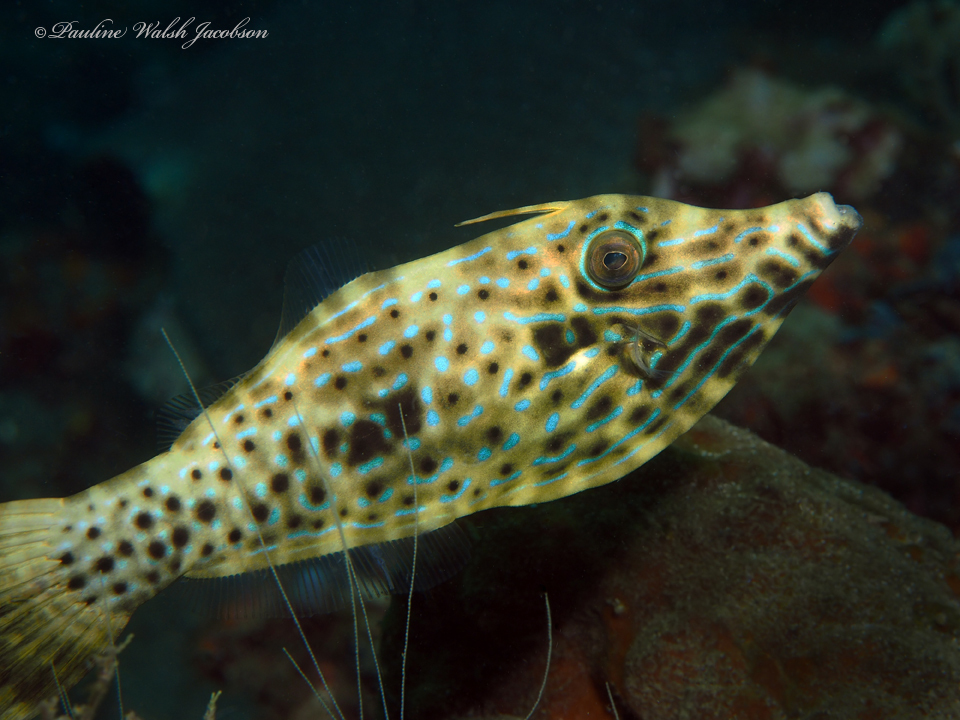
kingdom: Animalia
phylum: Chordata
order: Tetraodontiformes
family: Monacanthidae
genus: Aluterus
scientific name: Aluterus scriptus
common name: Scribbled leatherjacket filefish
